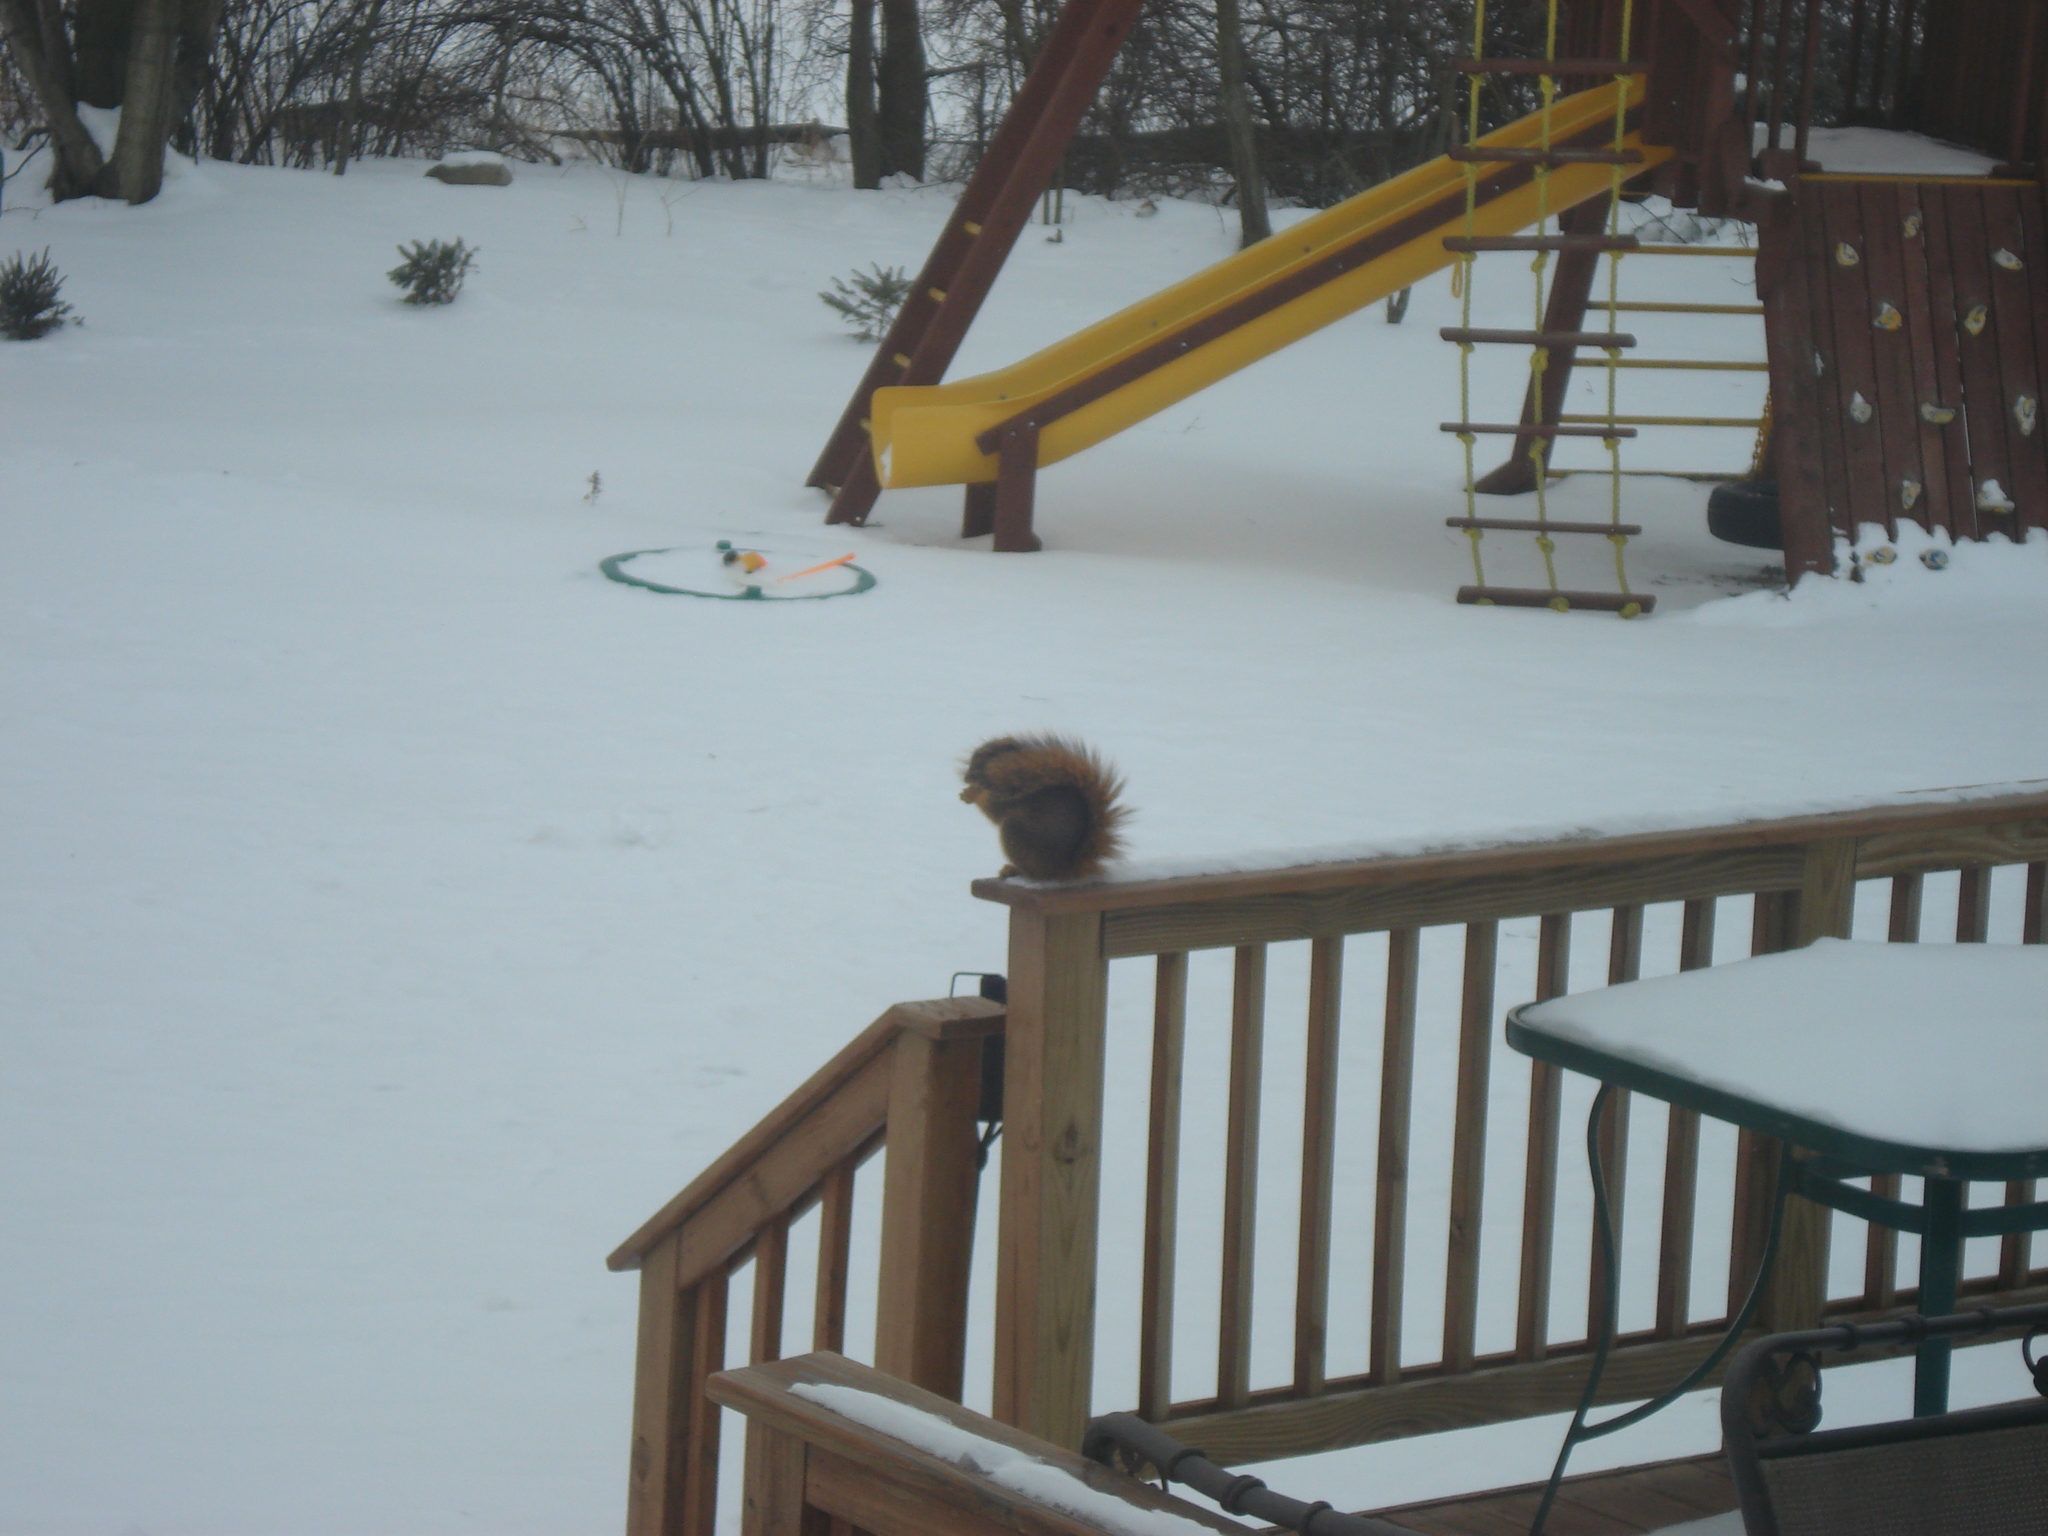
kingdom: Animalia
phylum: Chordata
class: Mammalia
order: Rodentia
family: Sciuridae
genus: Sciurus
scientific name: Sciurus niger
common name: Fox squirrel
